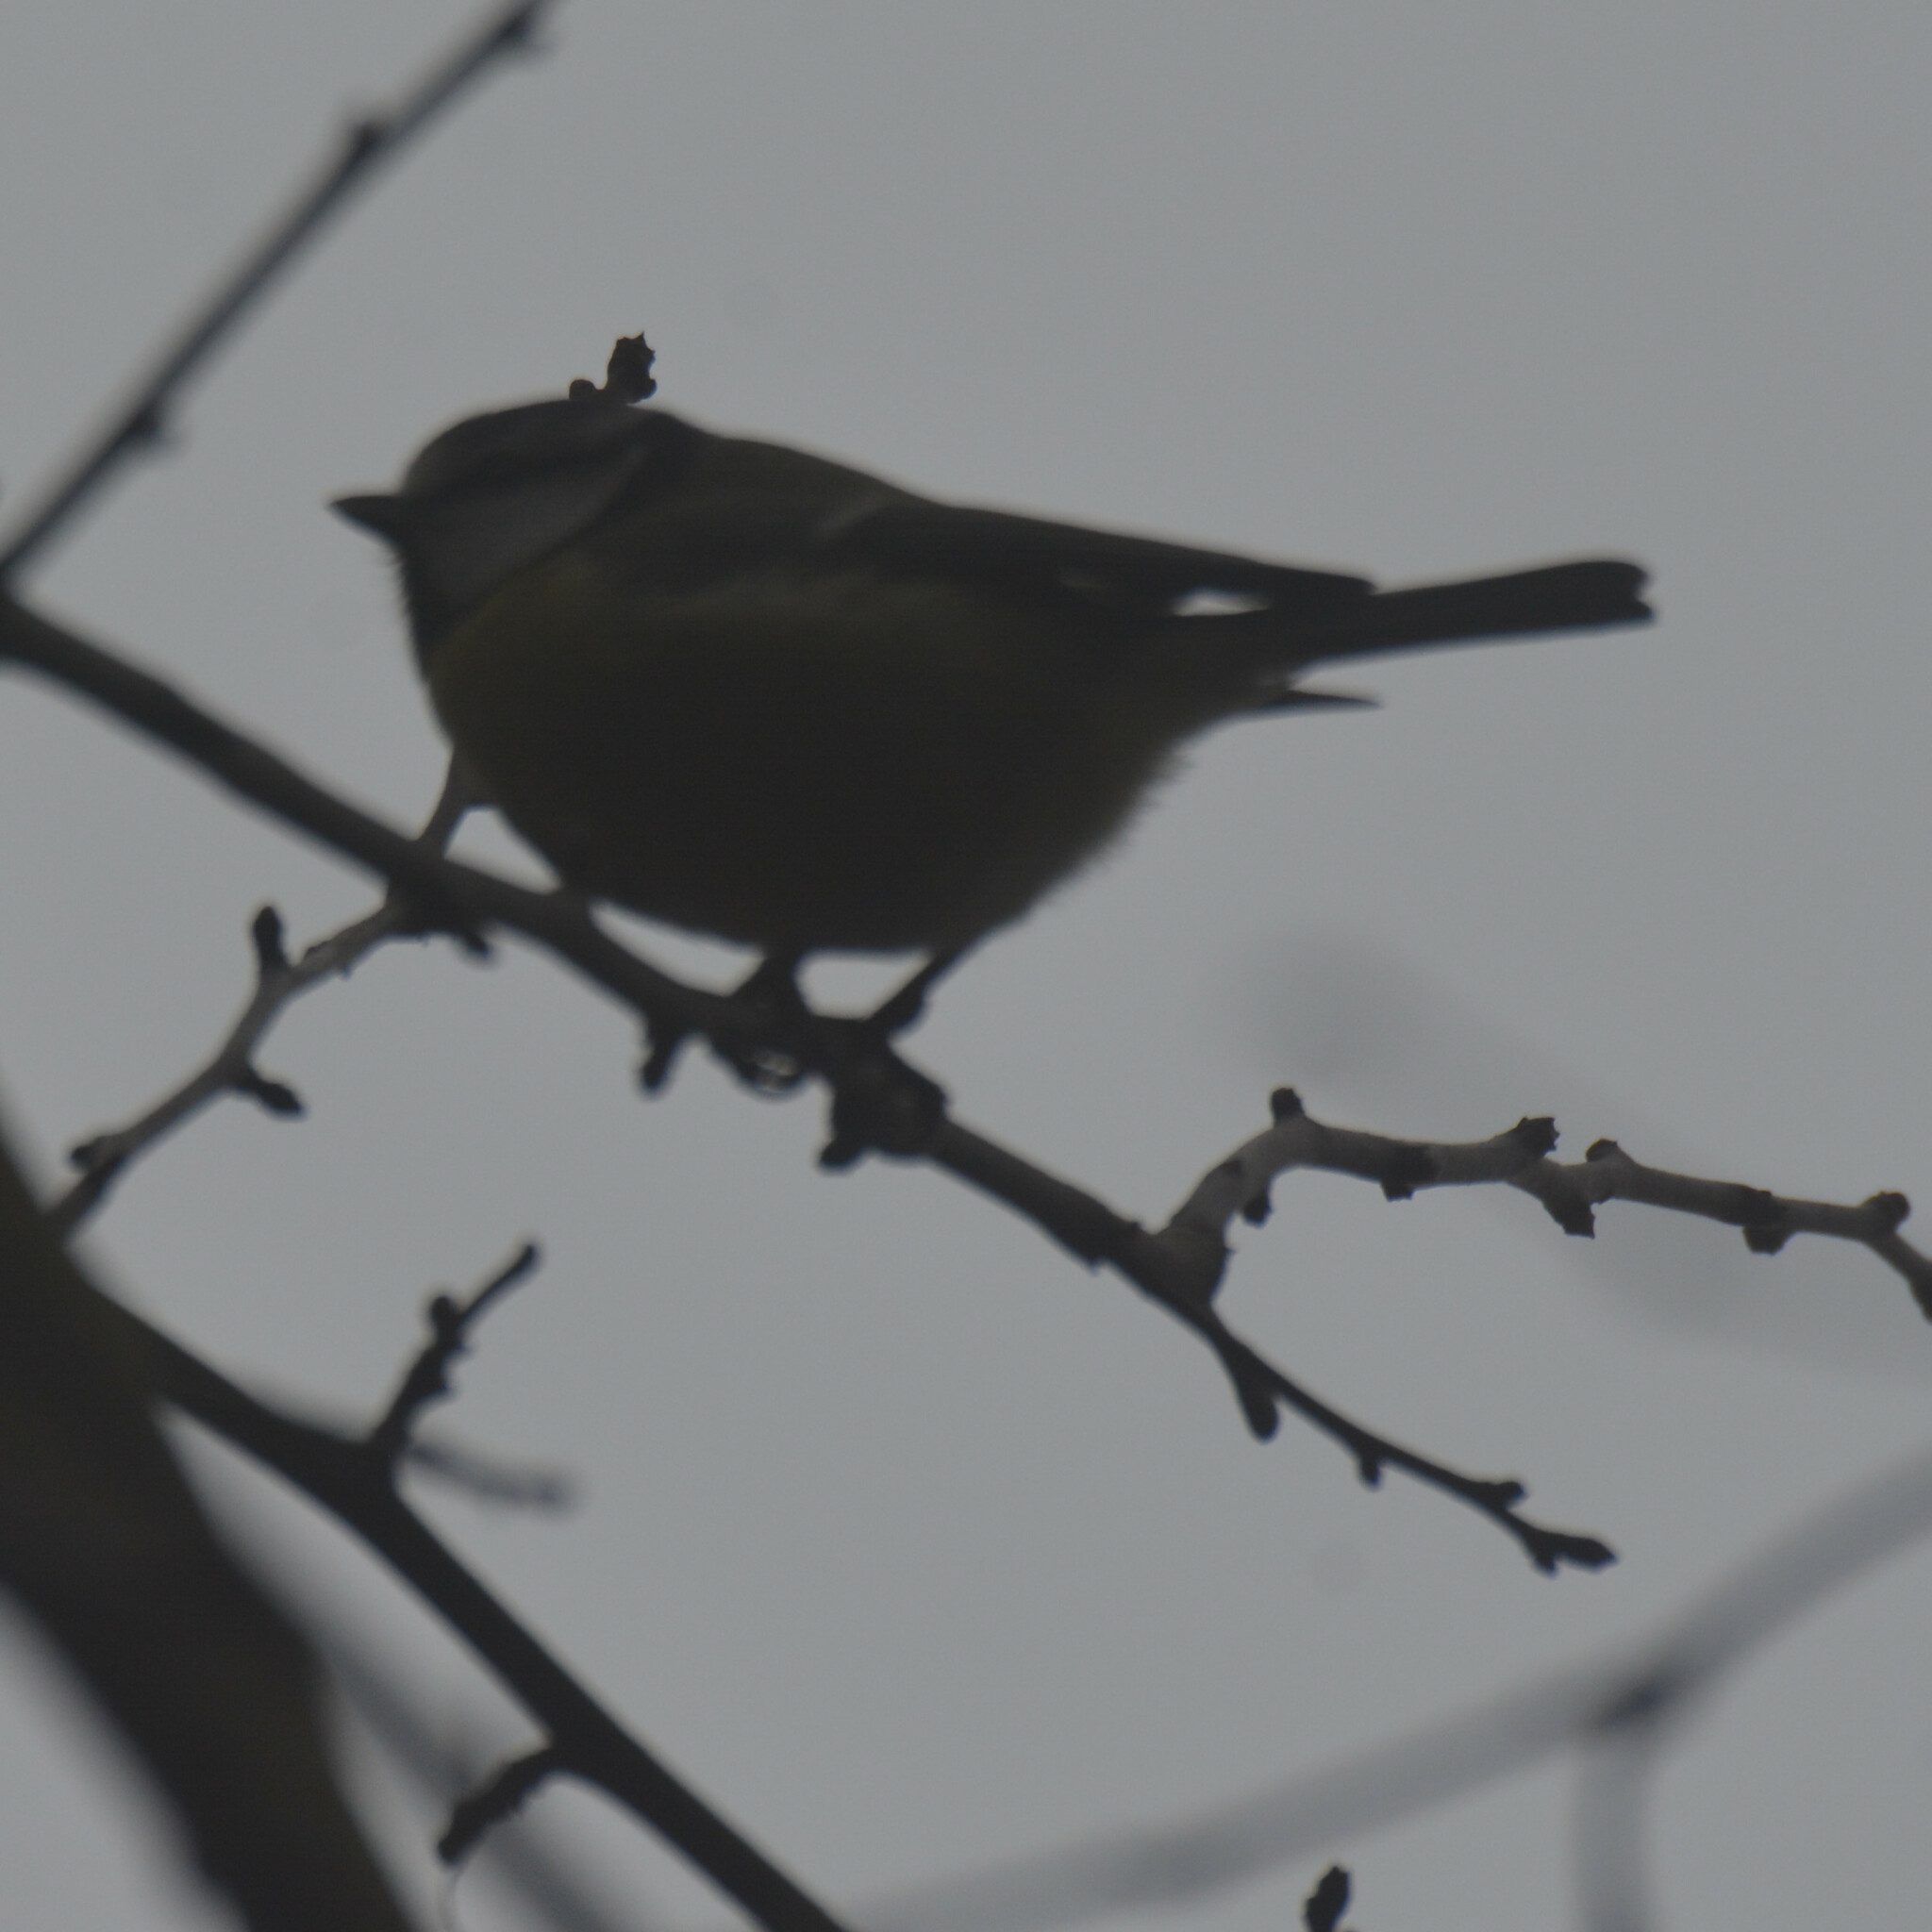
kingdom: Animalia
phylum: Chordata
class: Aves
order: Passeriformes
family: Paridae
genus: Cyanistes
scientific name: Cyanistes caeruleus
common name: Eurasian blue tit
